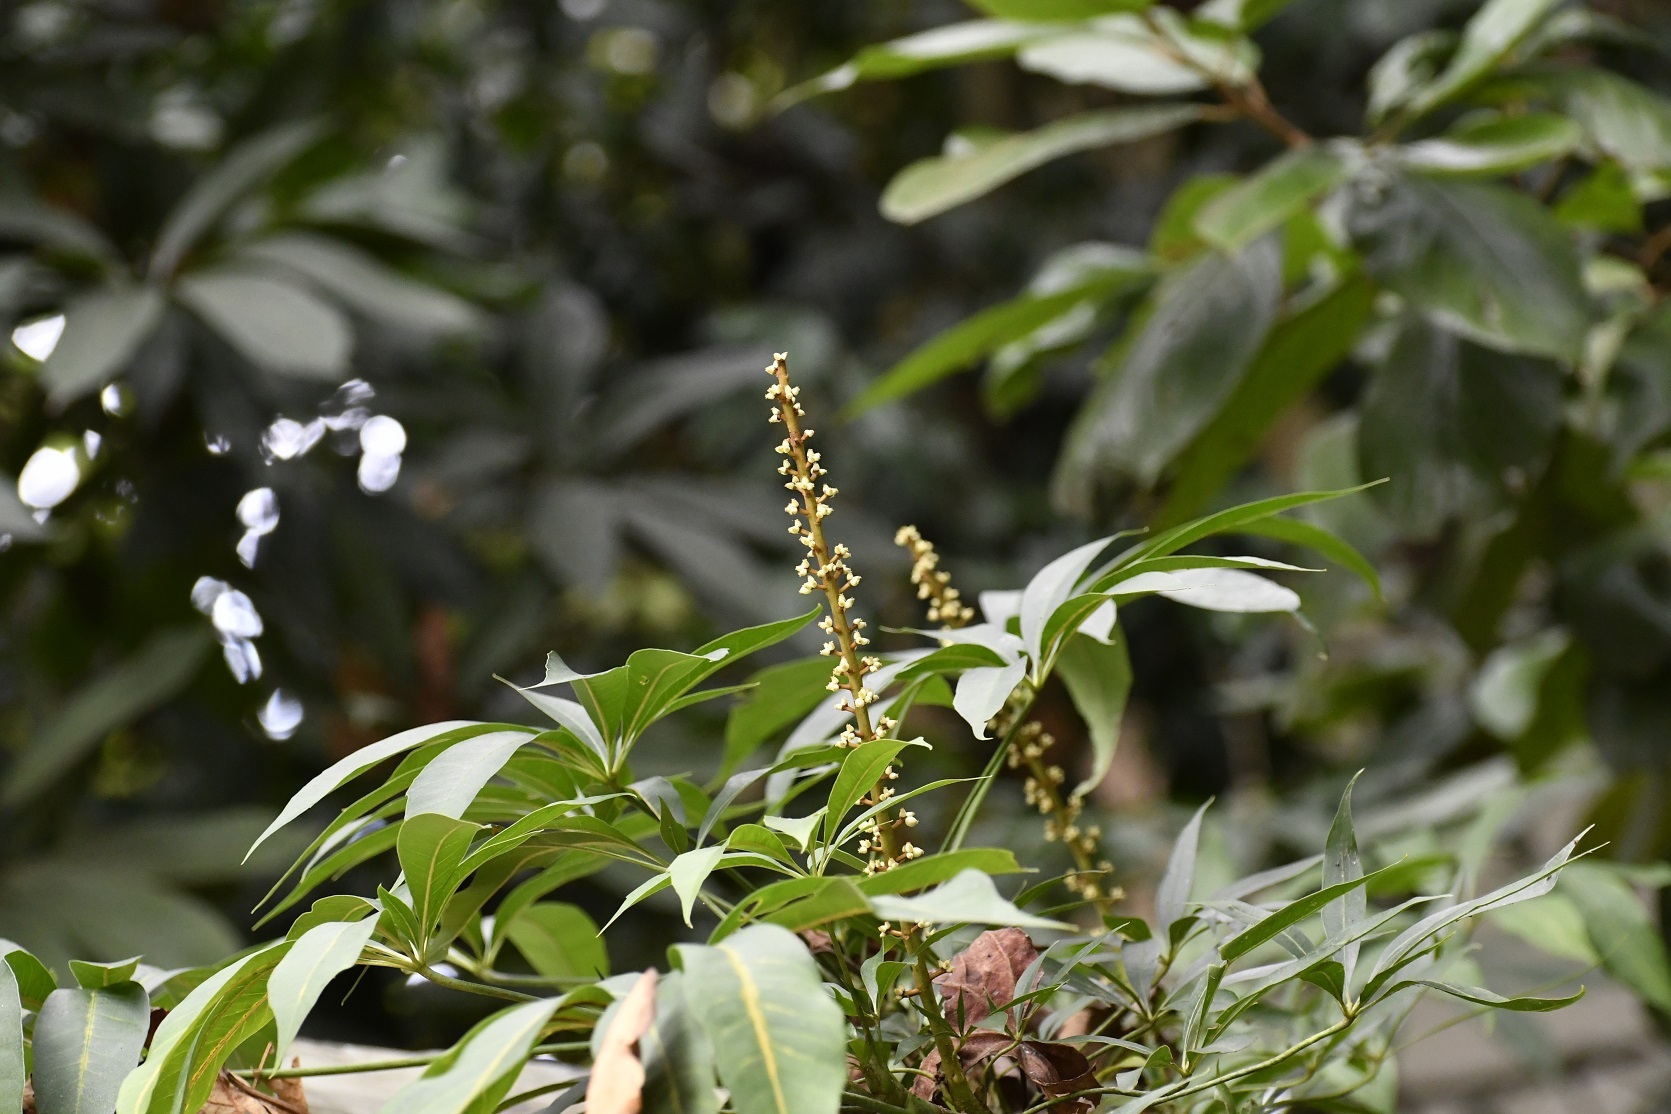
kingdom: Plantae
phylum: Tracheophyta
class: Magnoliopsida
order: Apiales
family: Araliaceae
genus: Oreopanax
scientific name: Oreopanax xalapensis
